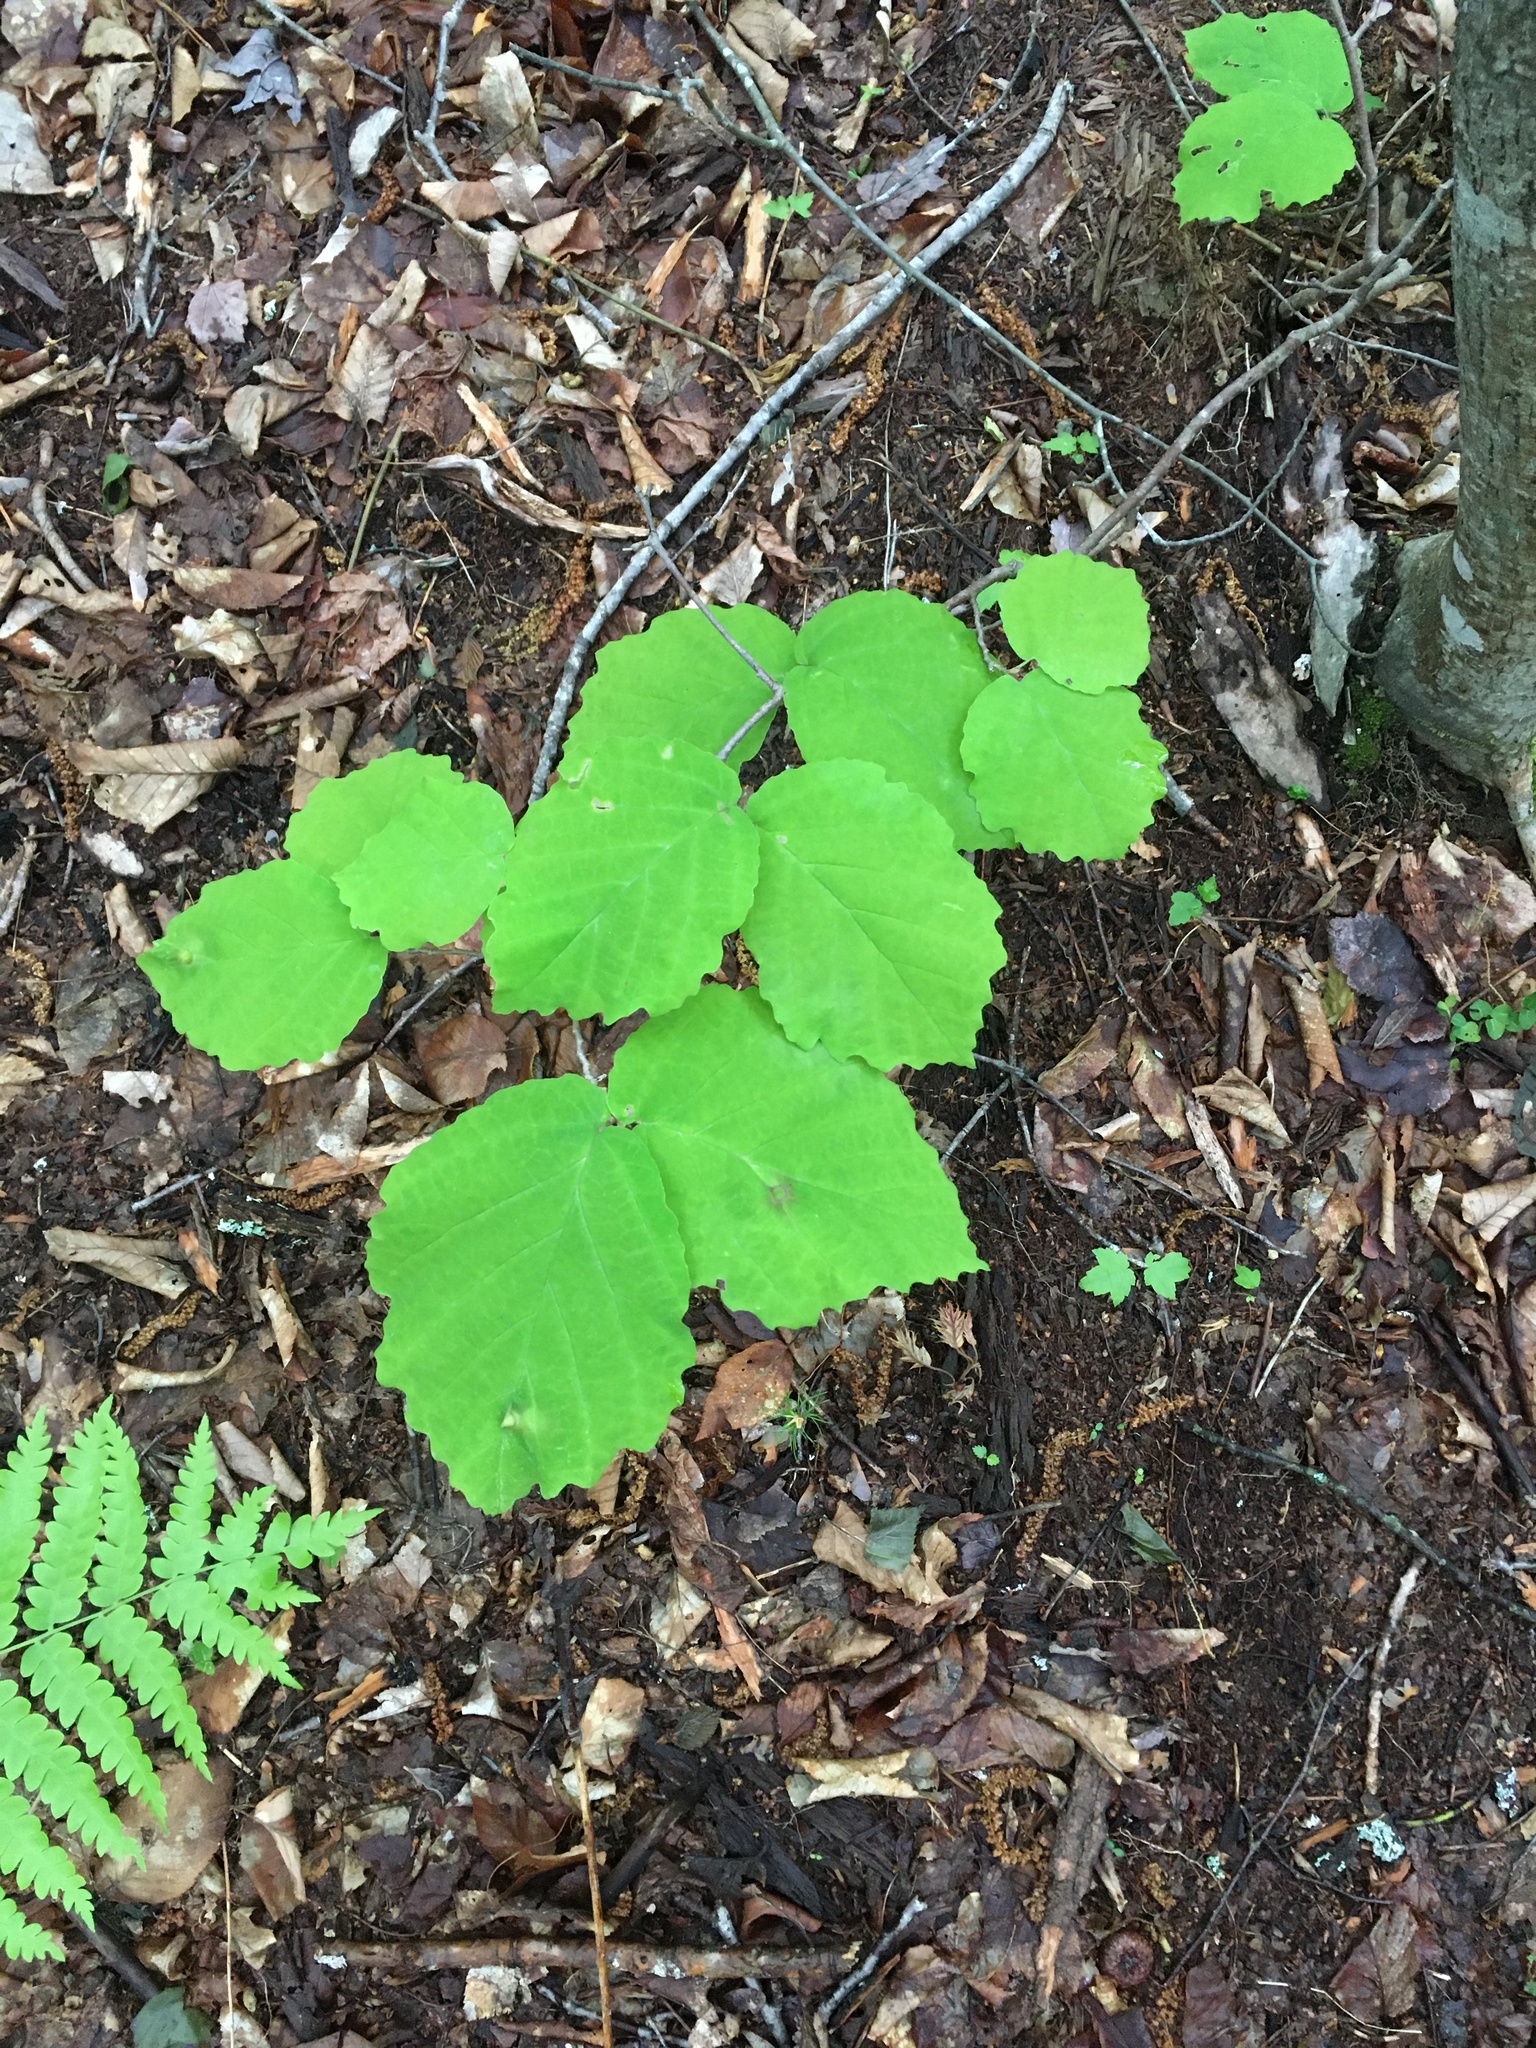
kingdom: Plantae
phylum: Tracheophyta
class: Magnoliopsida
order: Saxifragales
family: Hamamelidaceae
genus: Hamamelis
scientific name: Hamamelis virginiana
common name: Witch-hazel
